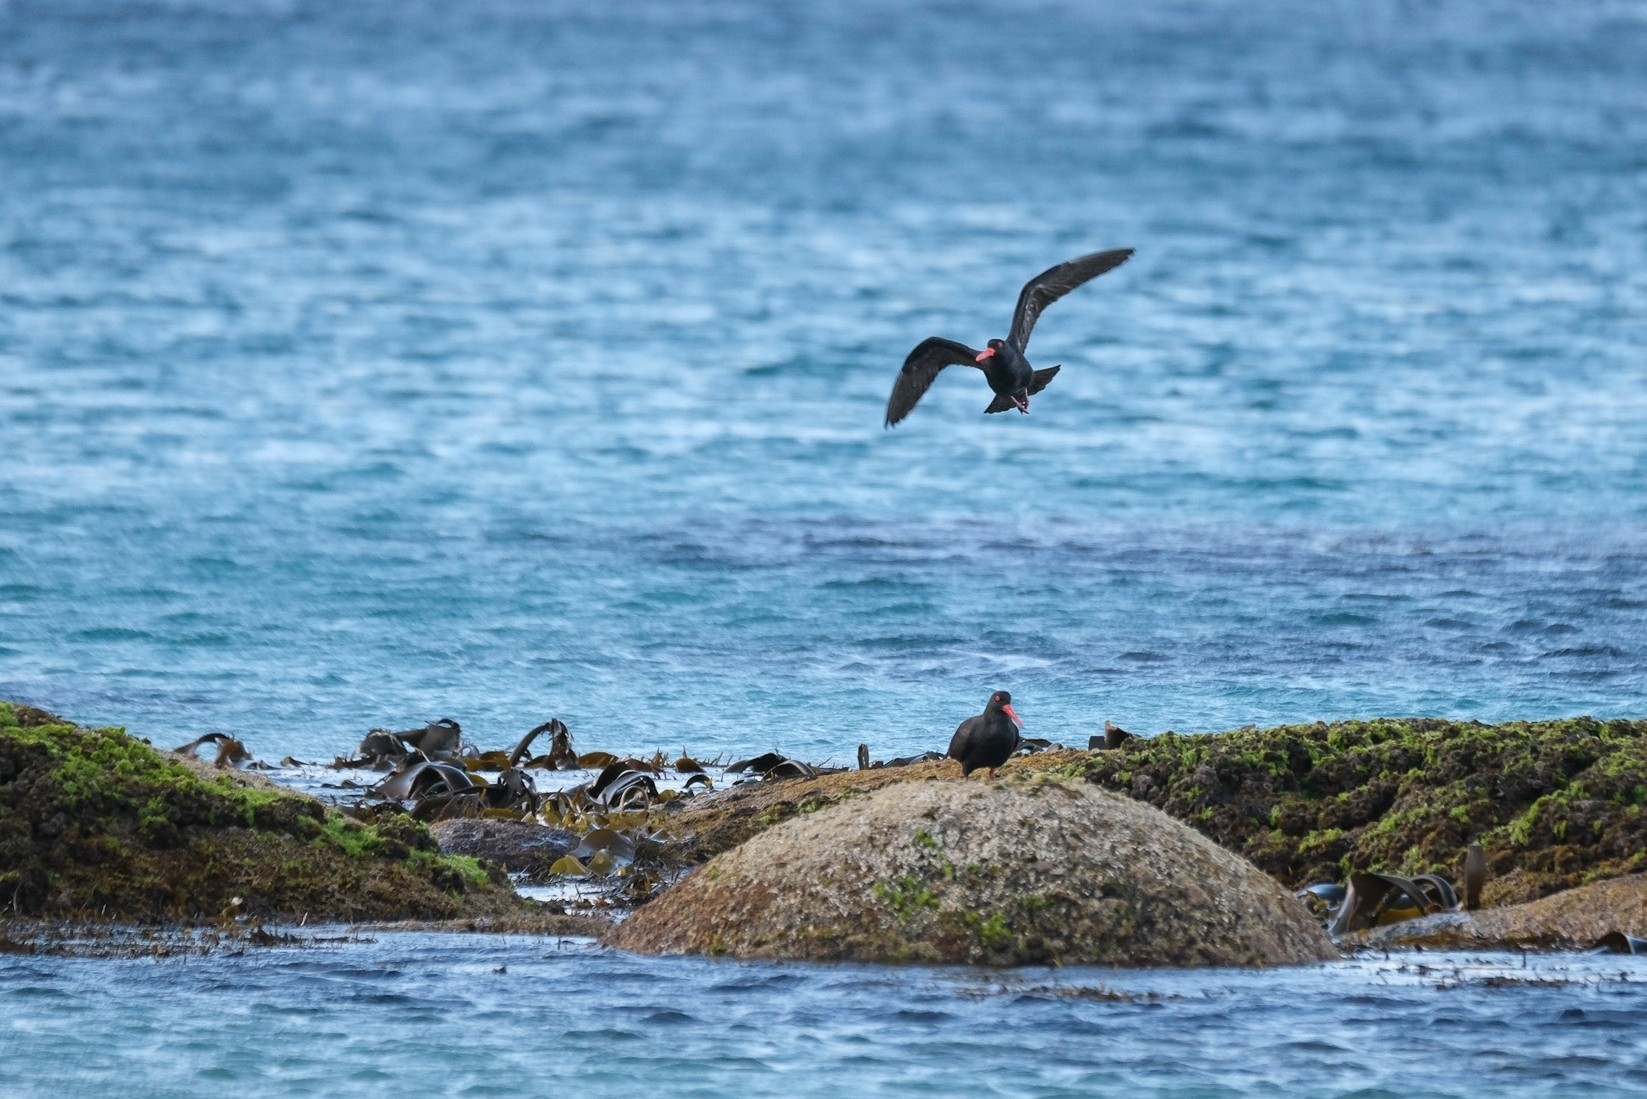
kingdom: Animalia
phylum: Chordata
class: Aves
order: Charadriiformes
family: Haematopodidae
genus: Haematopus
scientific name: Haematopus fuliginosus
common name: Sooty oystercatcher
